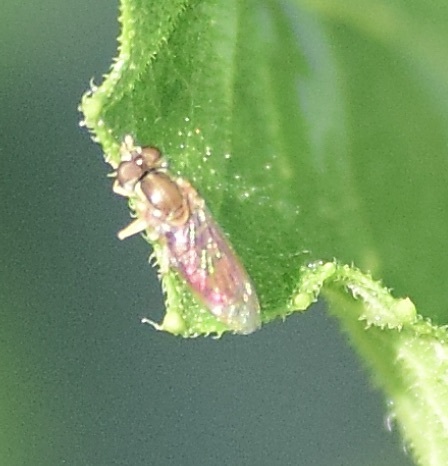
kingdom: Animalia
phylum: Arthropoda
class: Insecta
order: Diptera
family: Syrphidae
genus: Toxomerus
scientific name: Toxomerus marginatus
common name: Syrphid fly
